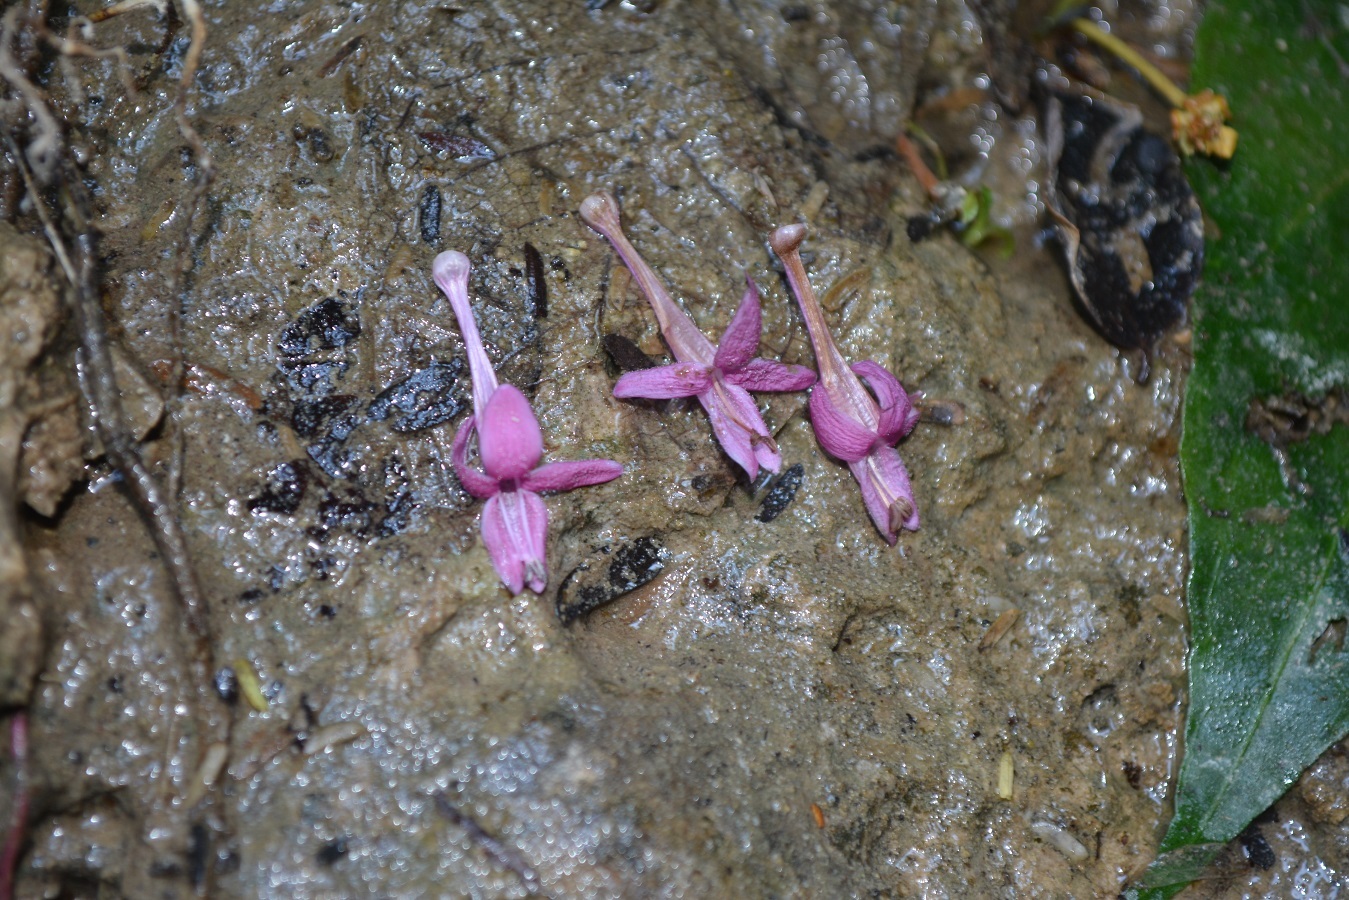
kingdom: Plantae
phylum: Tracheophyta
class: Magnoliopsida
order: Lamiales
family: Acanthaceae
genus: Odontonema
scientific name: Odontonema callistachyum
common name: Firespike
